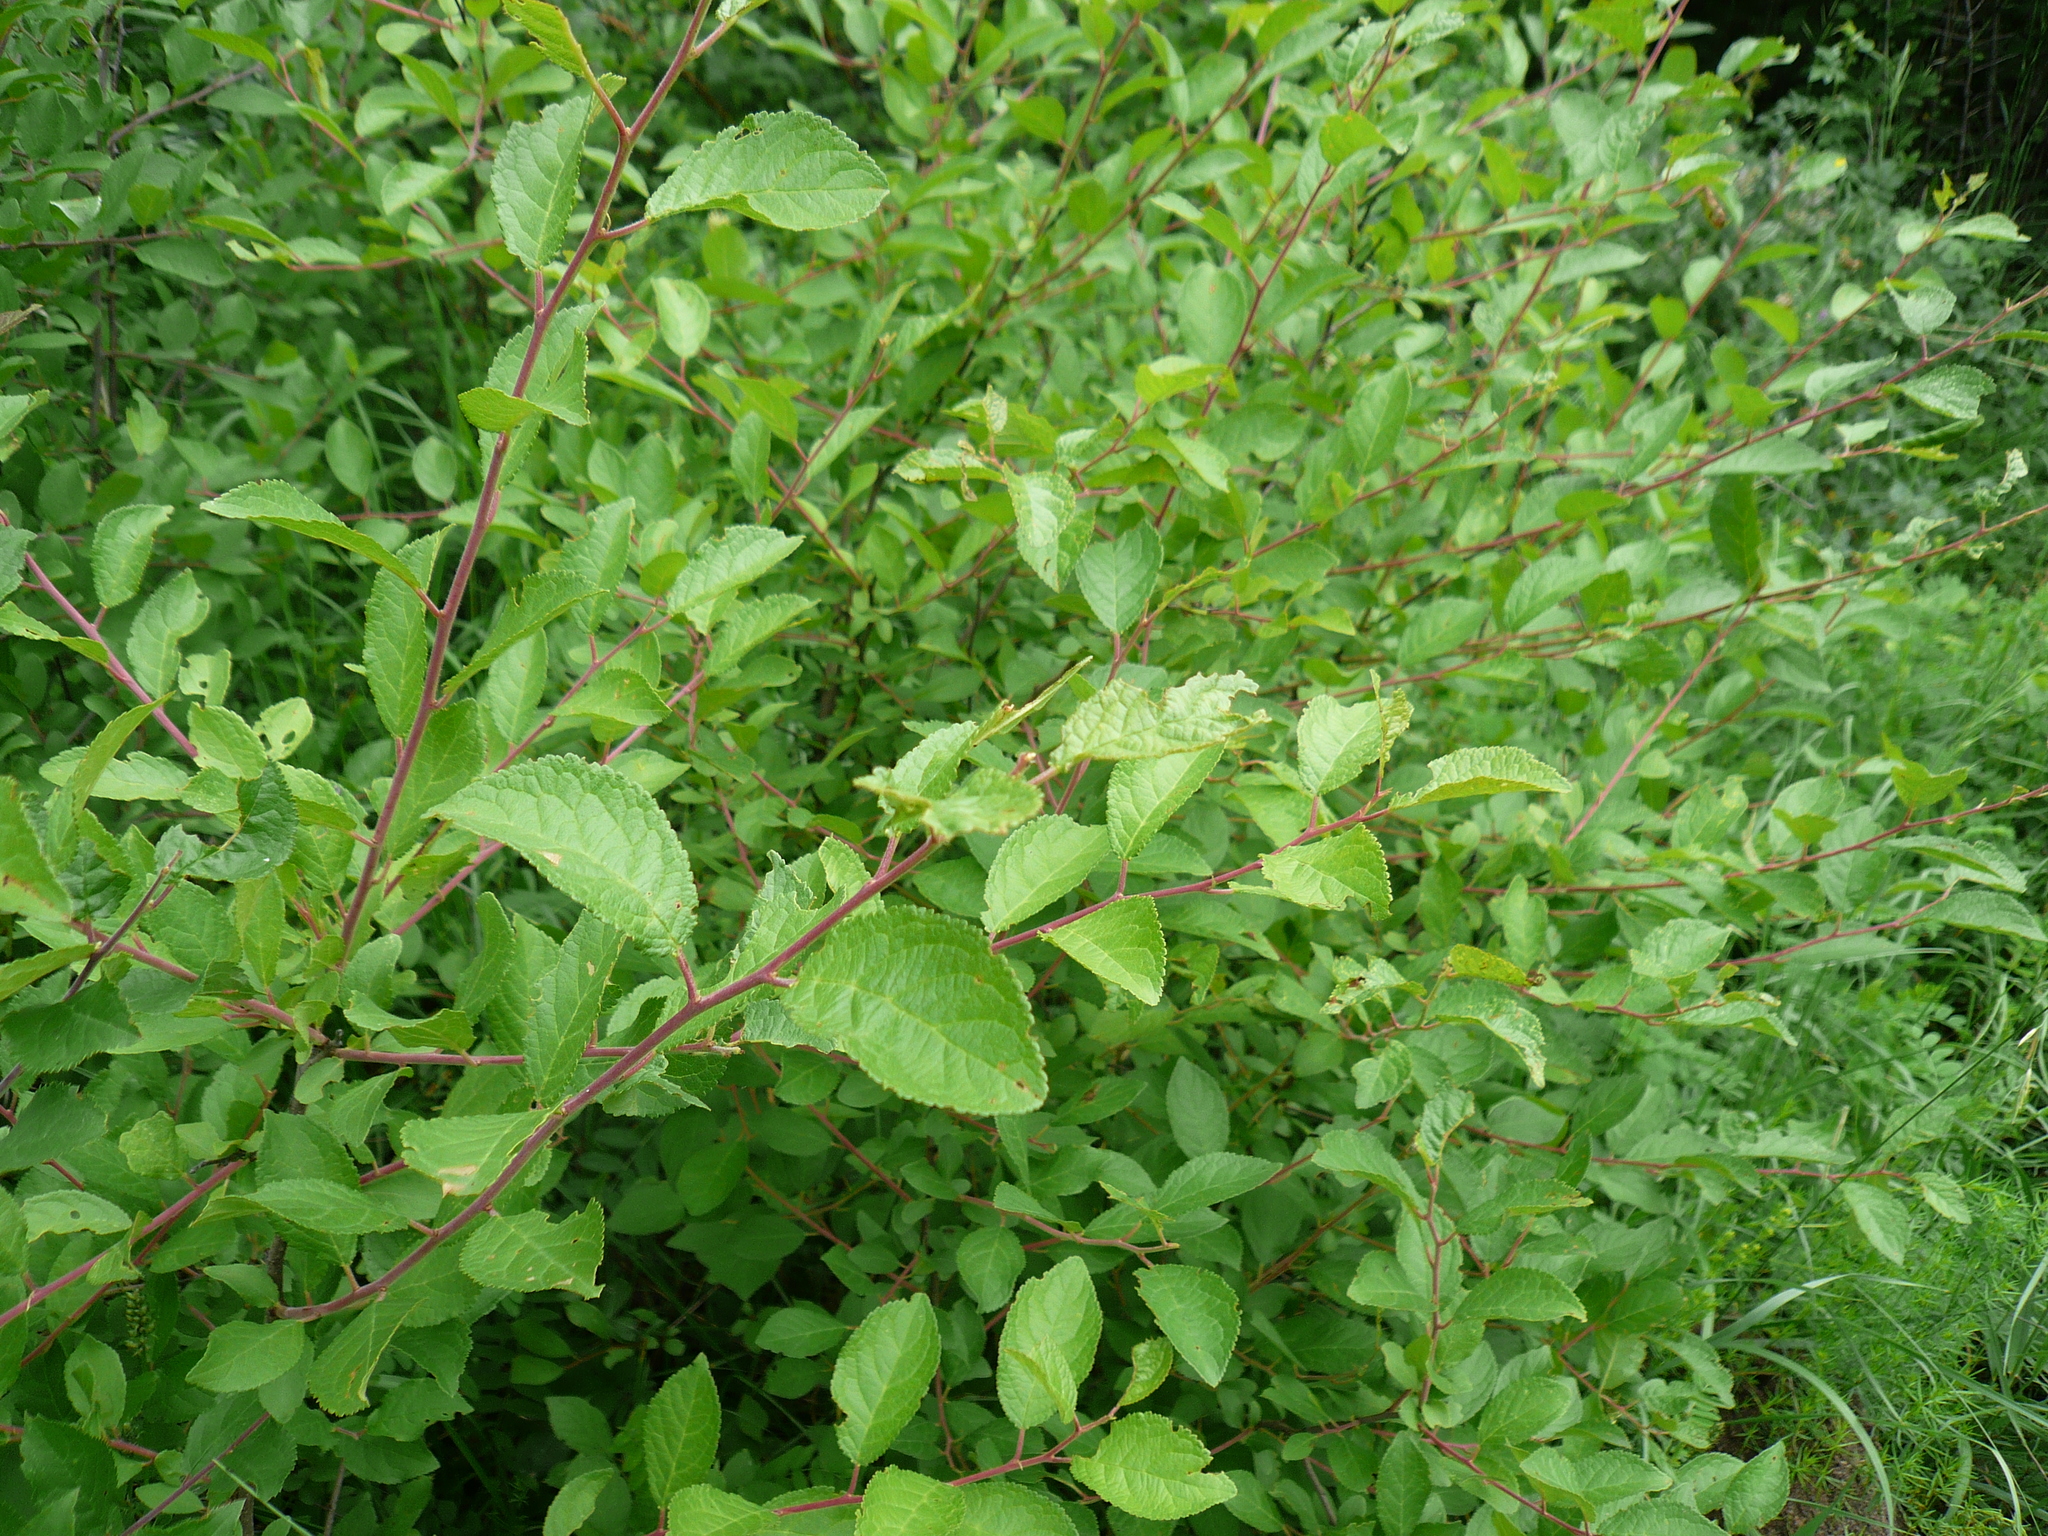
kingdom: Plantae
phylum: Tracheophyta
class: Magnoliopsida
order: Rosales
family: Rosaceae
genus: Prunus
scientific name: Prunus spinosa
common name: Blackthorn
